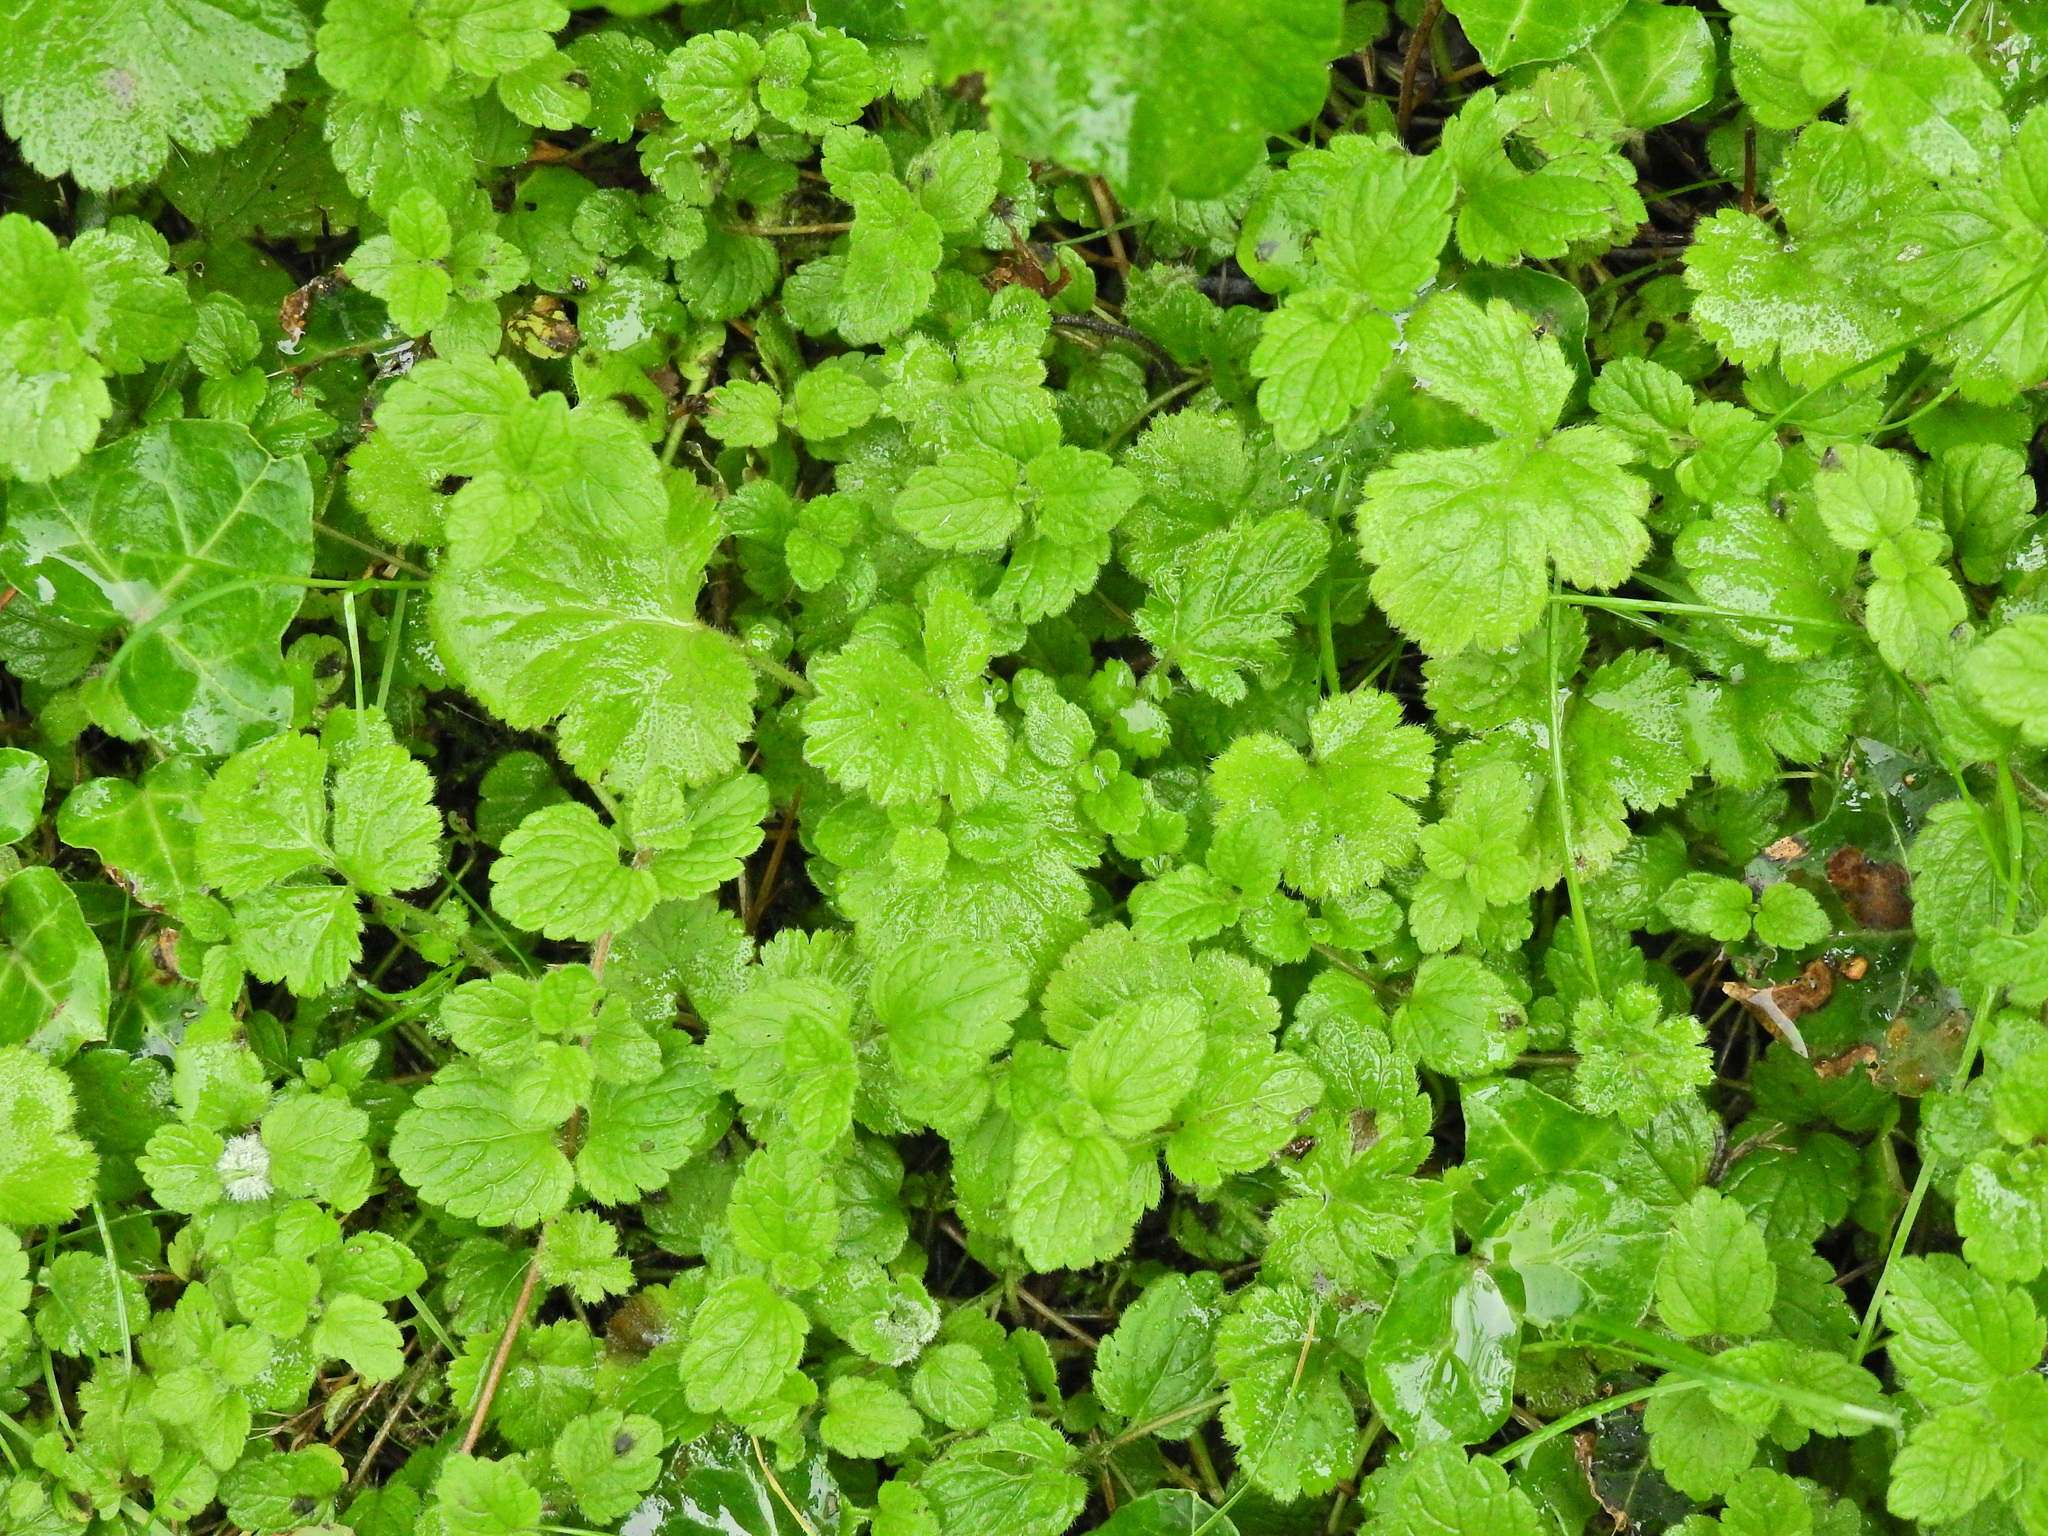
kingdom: Plantae
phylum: Tracheophyta
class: Magnoliopsida
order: Lamiales
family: Plantaginaceae
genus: Veronica
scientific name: Veronica chamaedrys
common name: Germander speedwell
